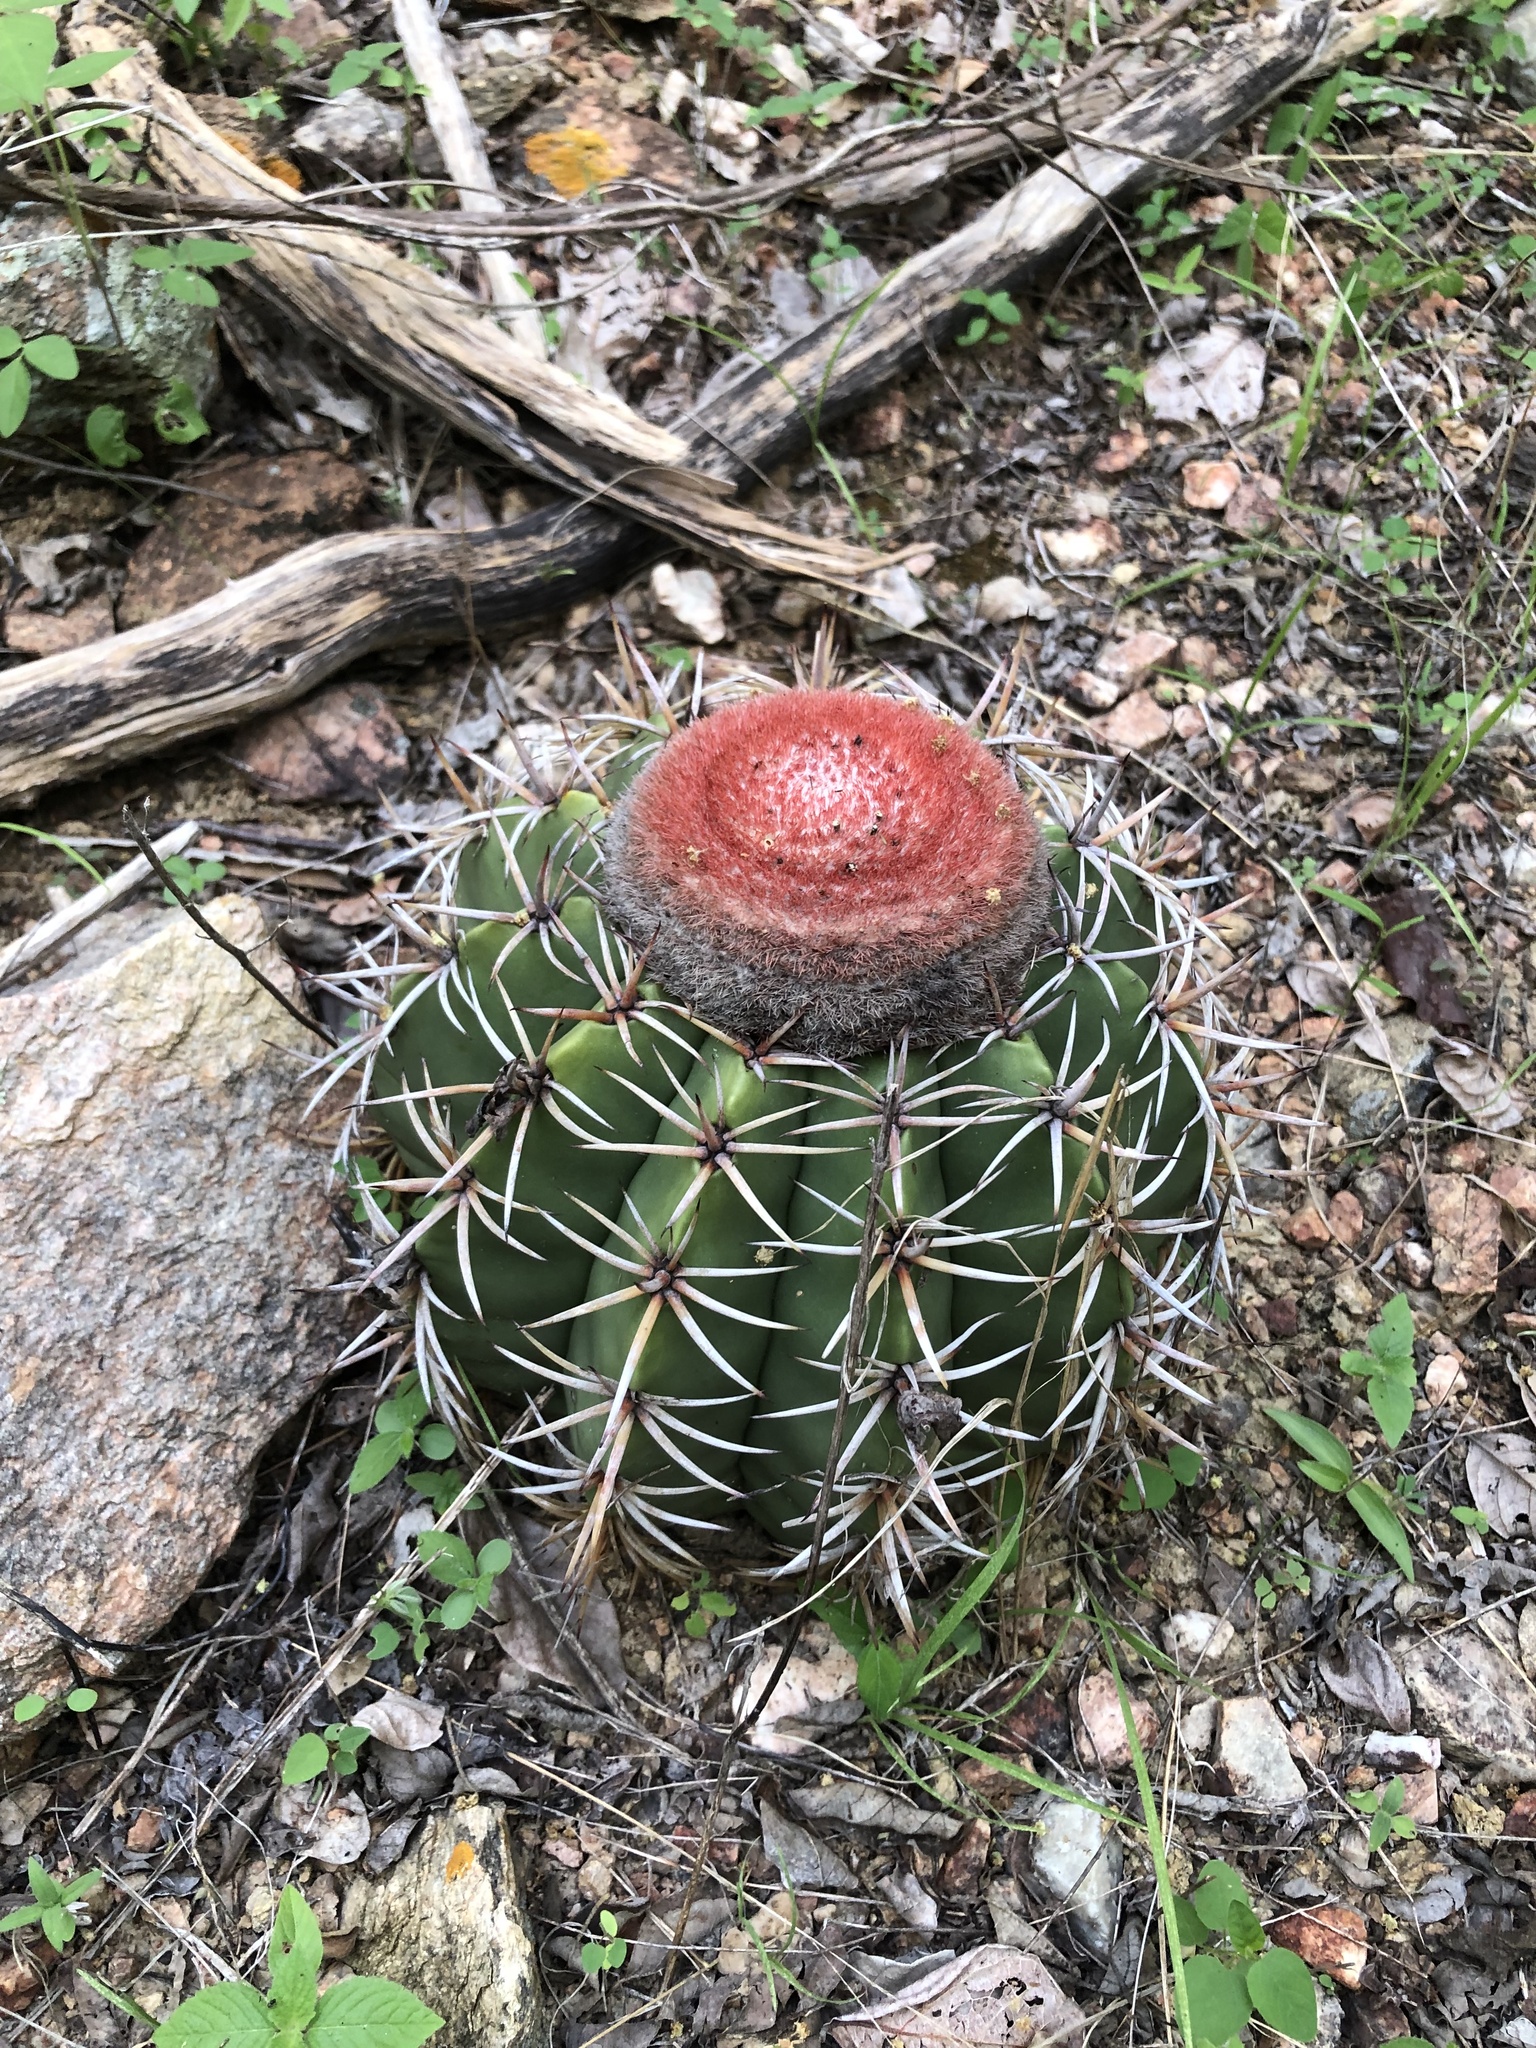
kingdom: Plantae
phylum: Tracheophyta
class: Magnoliopsida
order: Caryophyllales
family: Cactaceae
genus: Melocactus
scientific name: Melocactus zehntneri
